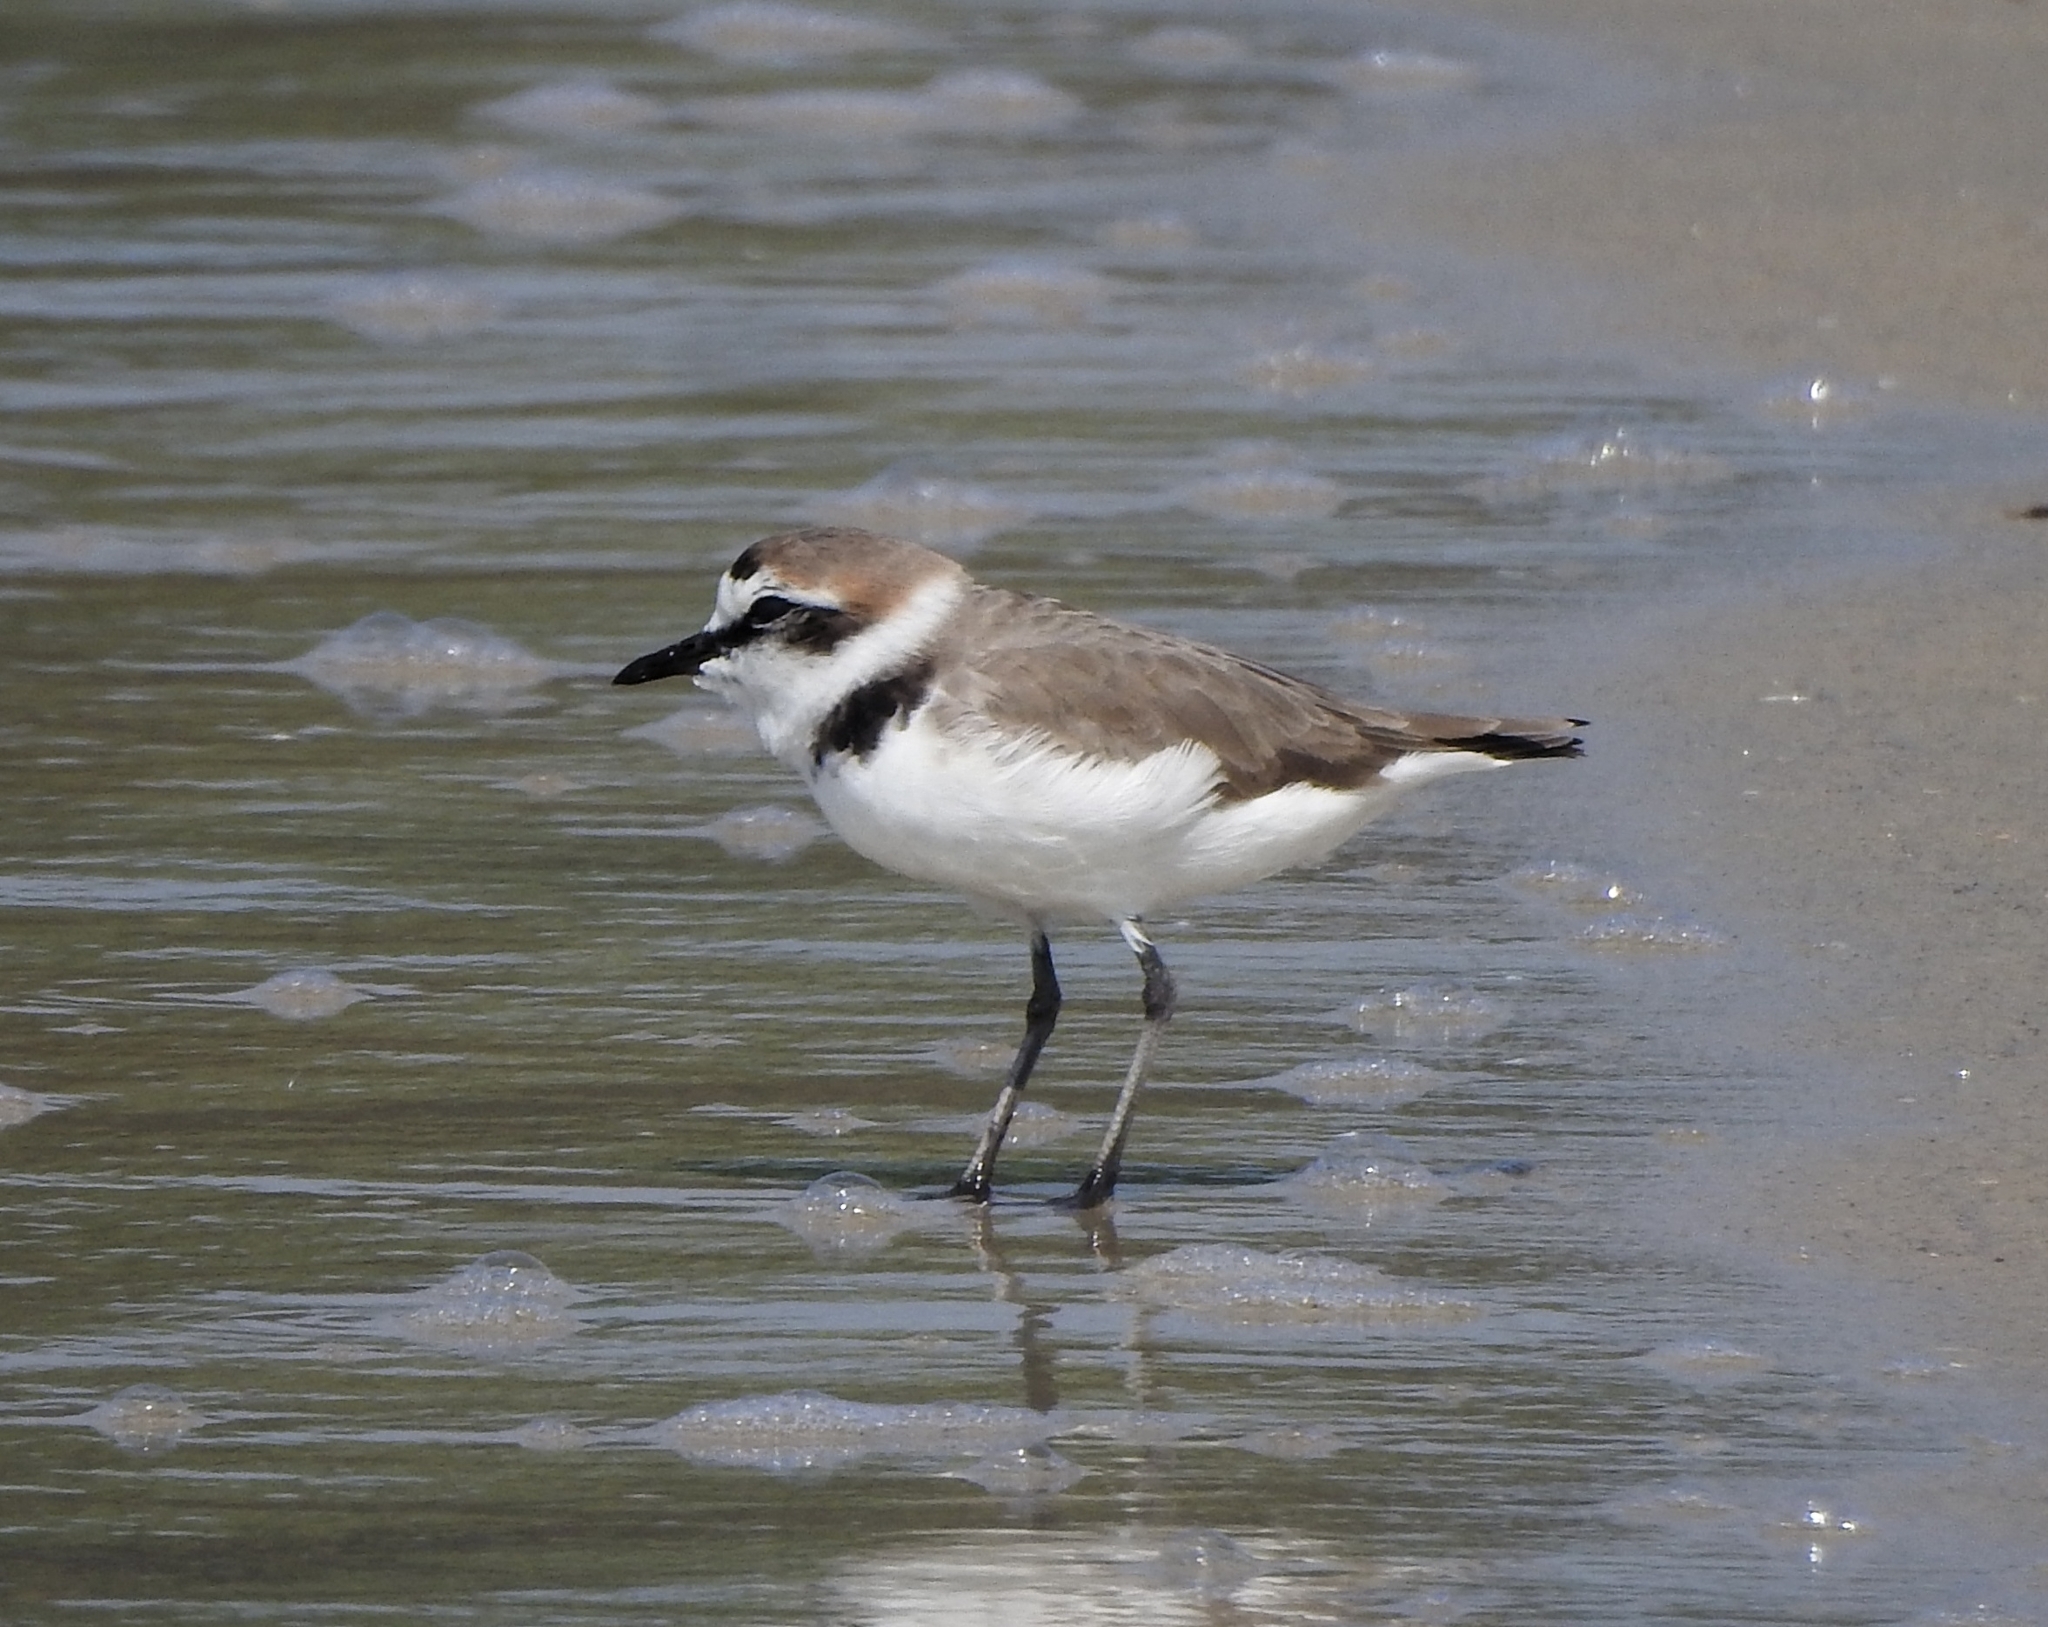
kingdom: Animalia
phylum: Chordata
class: Aves
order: Charadriiformes
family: Charadriidae
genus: Charadrius
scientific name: Charadrius alexandrinus
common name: Kentish plover
